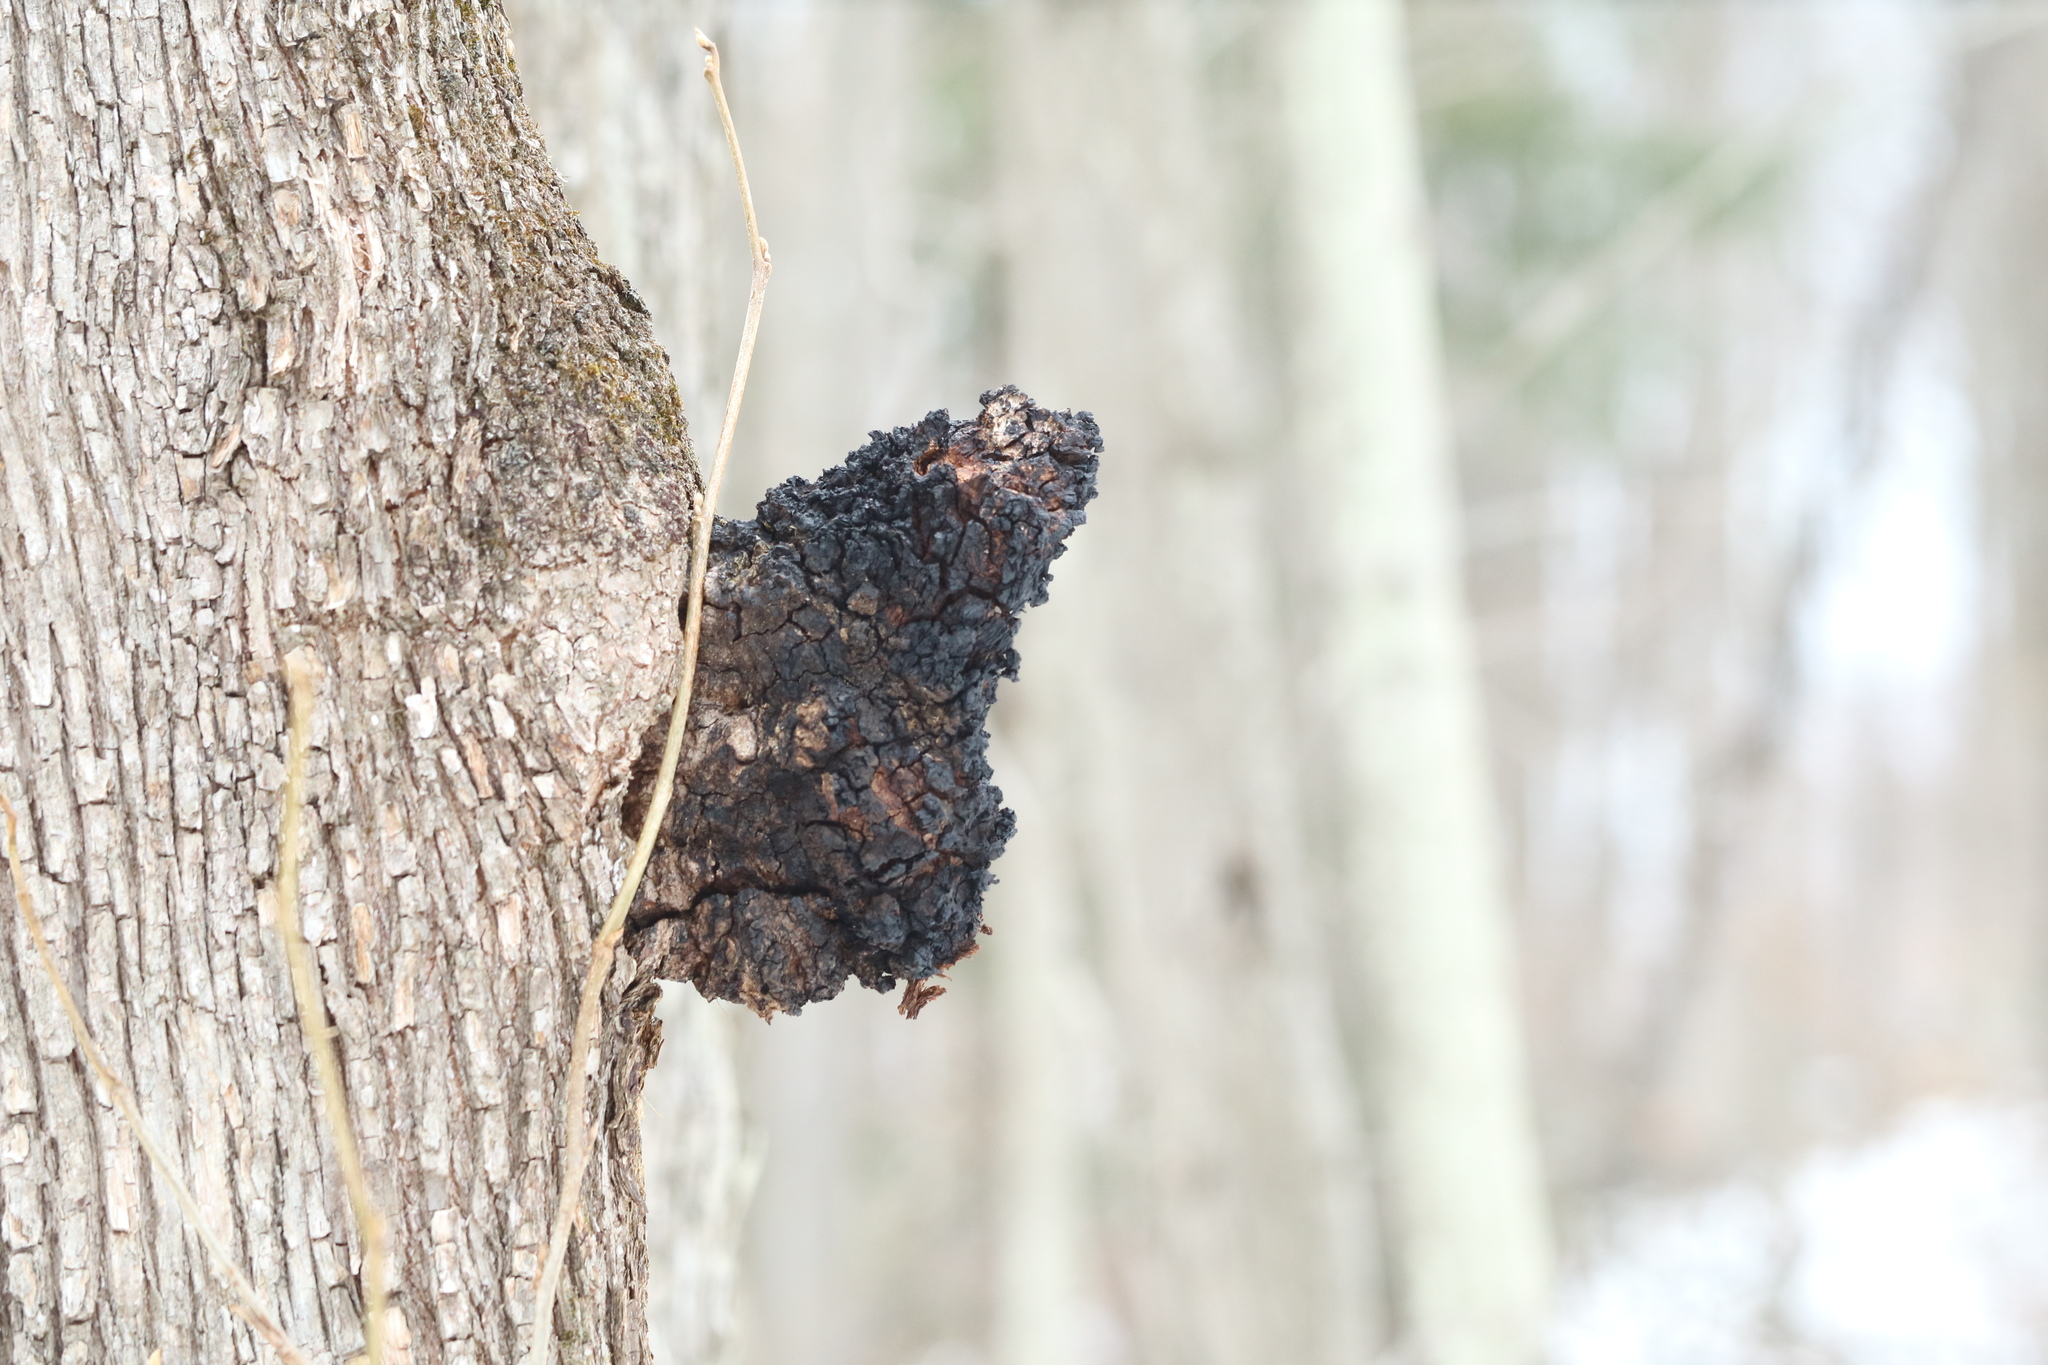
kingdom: Fungi
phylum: Basidiomycota
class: Agaricomycetes
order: Hymenochaetales
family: Hymenochaetaceae
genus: Inonotus
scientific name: Inonotus obliquus
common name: Chaga
